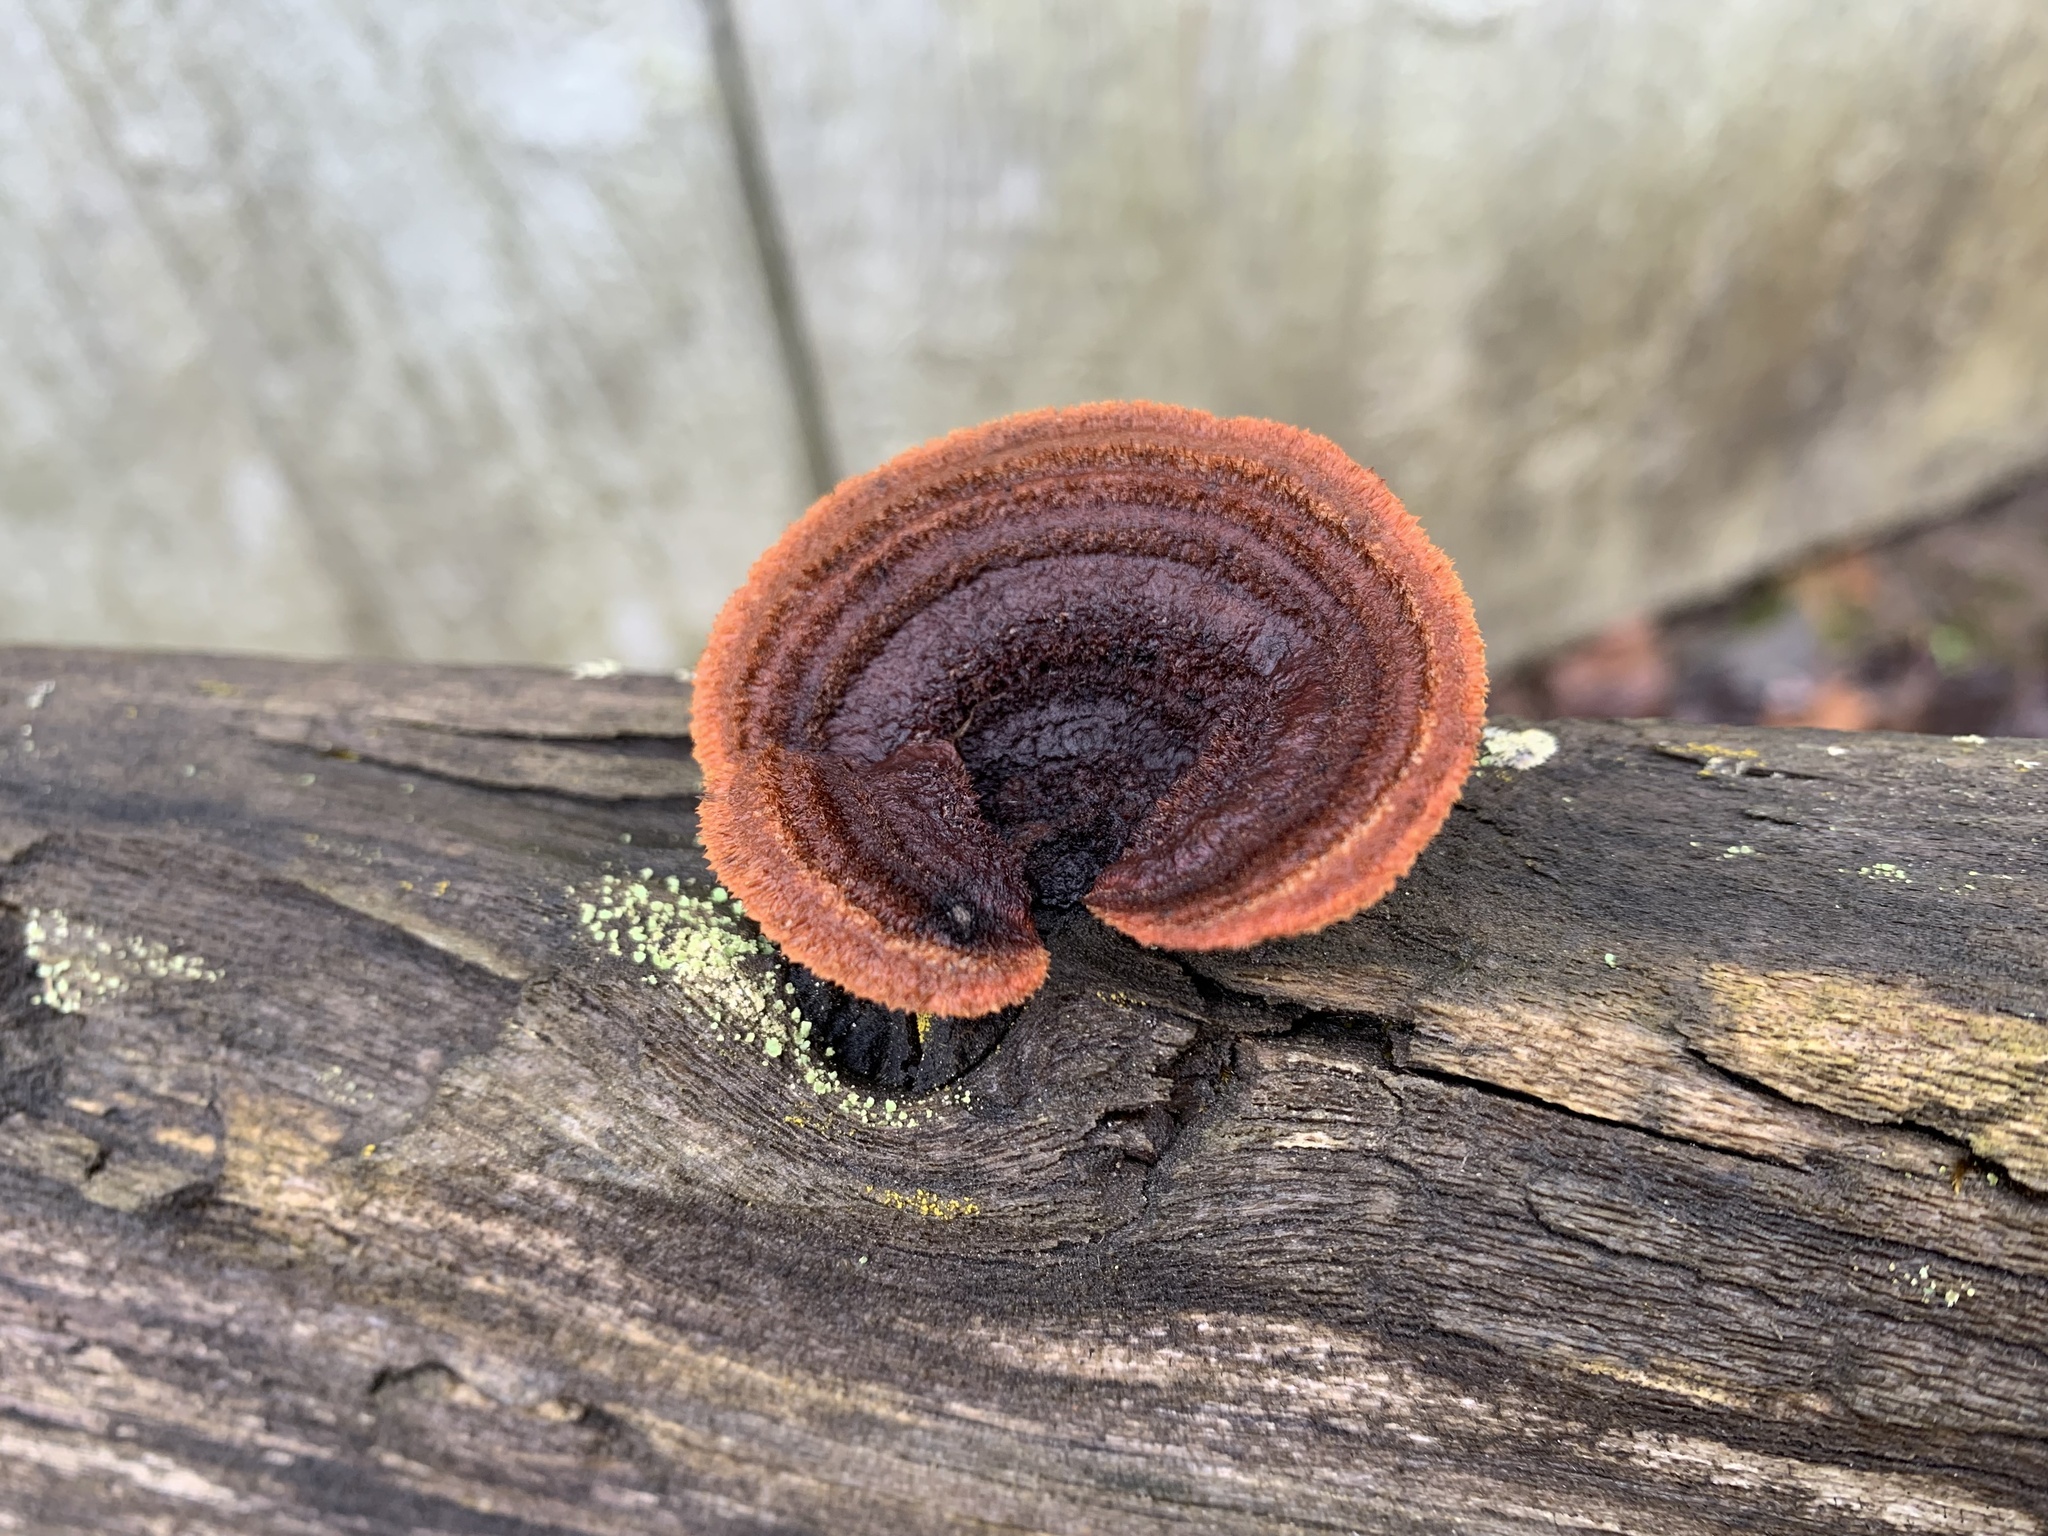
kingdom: Fungi
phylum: Basidiomycota
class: Agaricomycetes
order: Gloeophyllales
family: Gloeophyllaceae
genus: Gloeophyllum
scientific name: Gloeophyllum sepiarium
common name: Conifer mazegill
